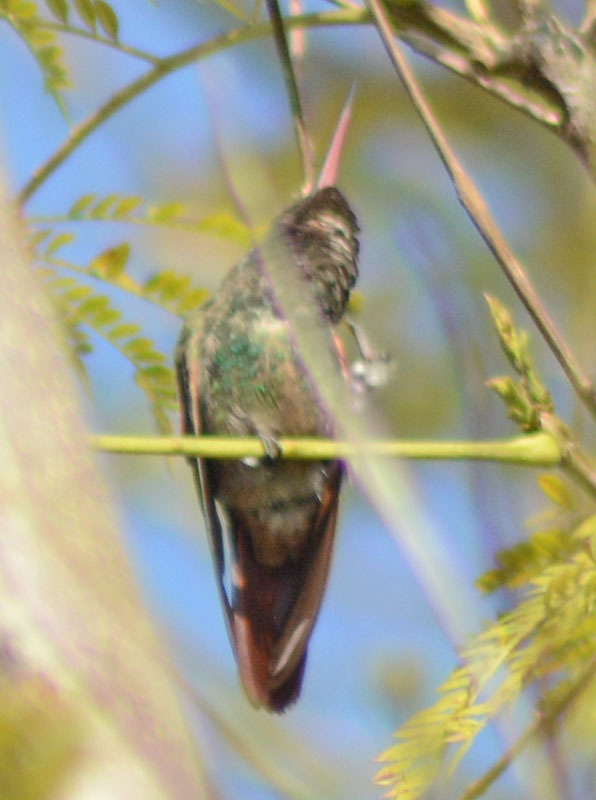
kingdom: Animalia
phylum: Chordata
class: Aves
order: Apodiformes
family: Trochilidae
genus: Saucerottia
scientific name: Saucerottia beryllina
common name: Berylline hummingbird
